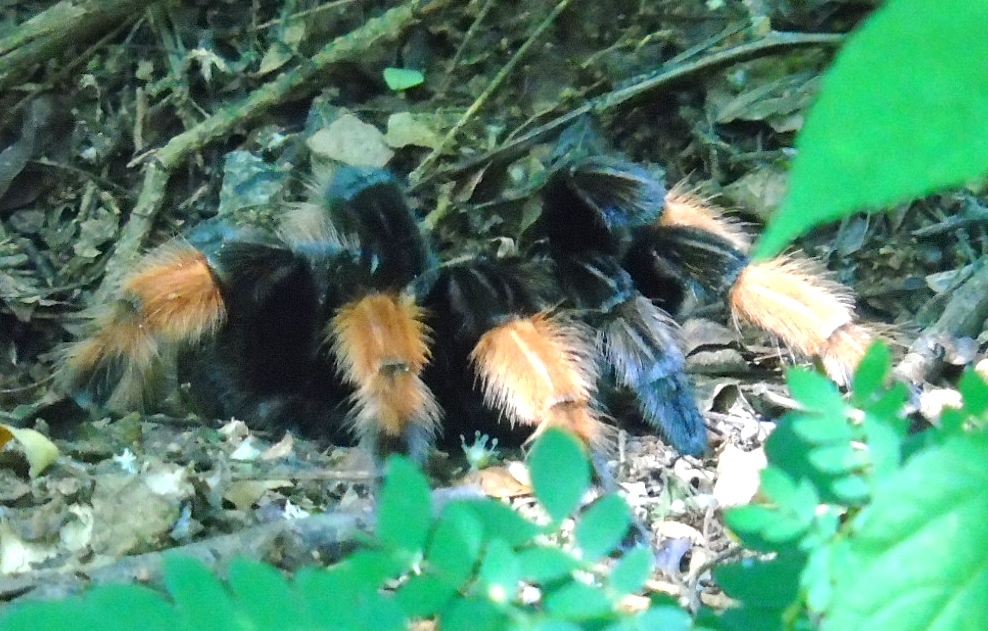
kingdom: Animalia
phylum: Arthropoda
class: Arachnida
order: Araneae
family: Theraphosidae
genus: Brachypelma
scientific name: Brachypelma emilia
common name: Mexican redleg
